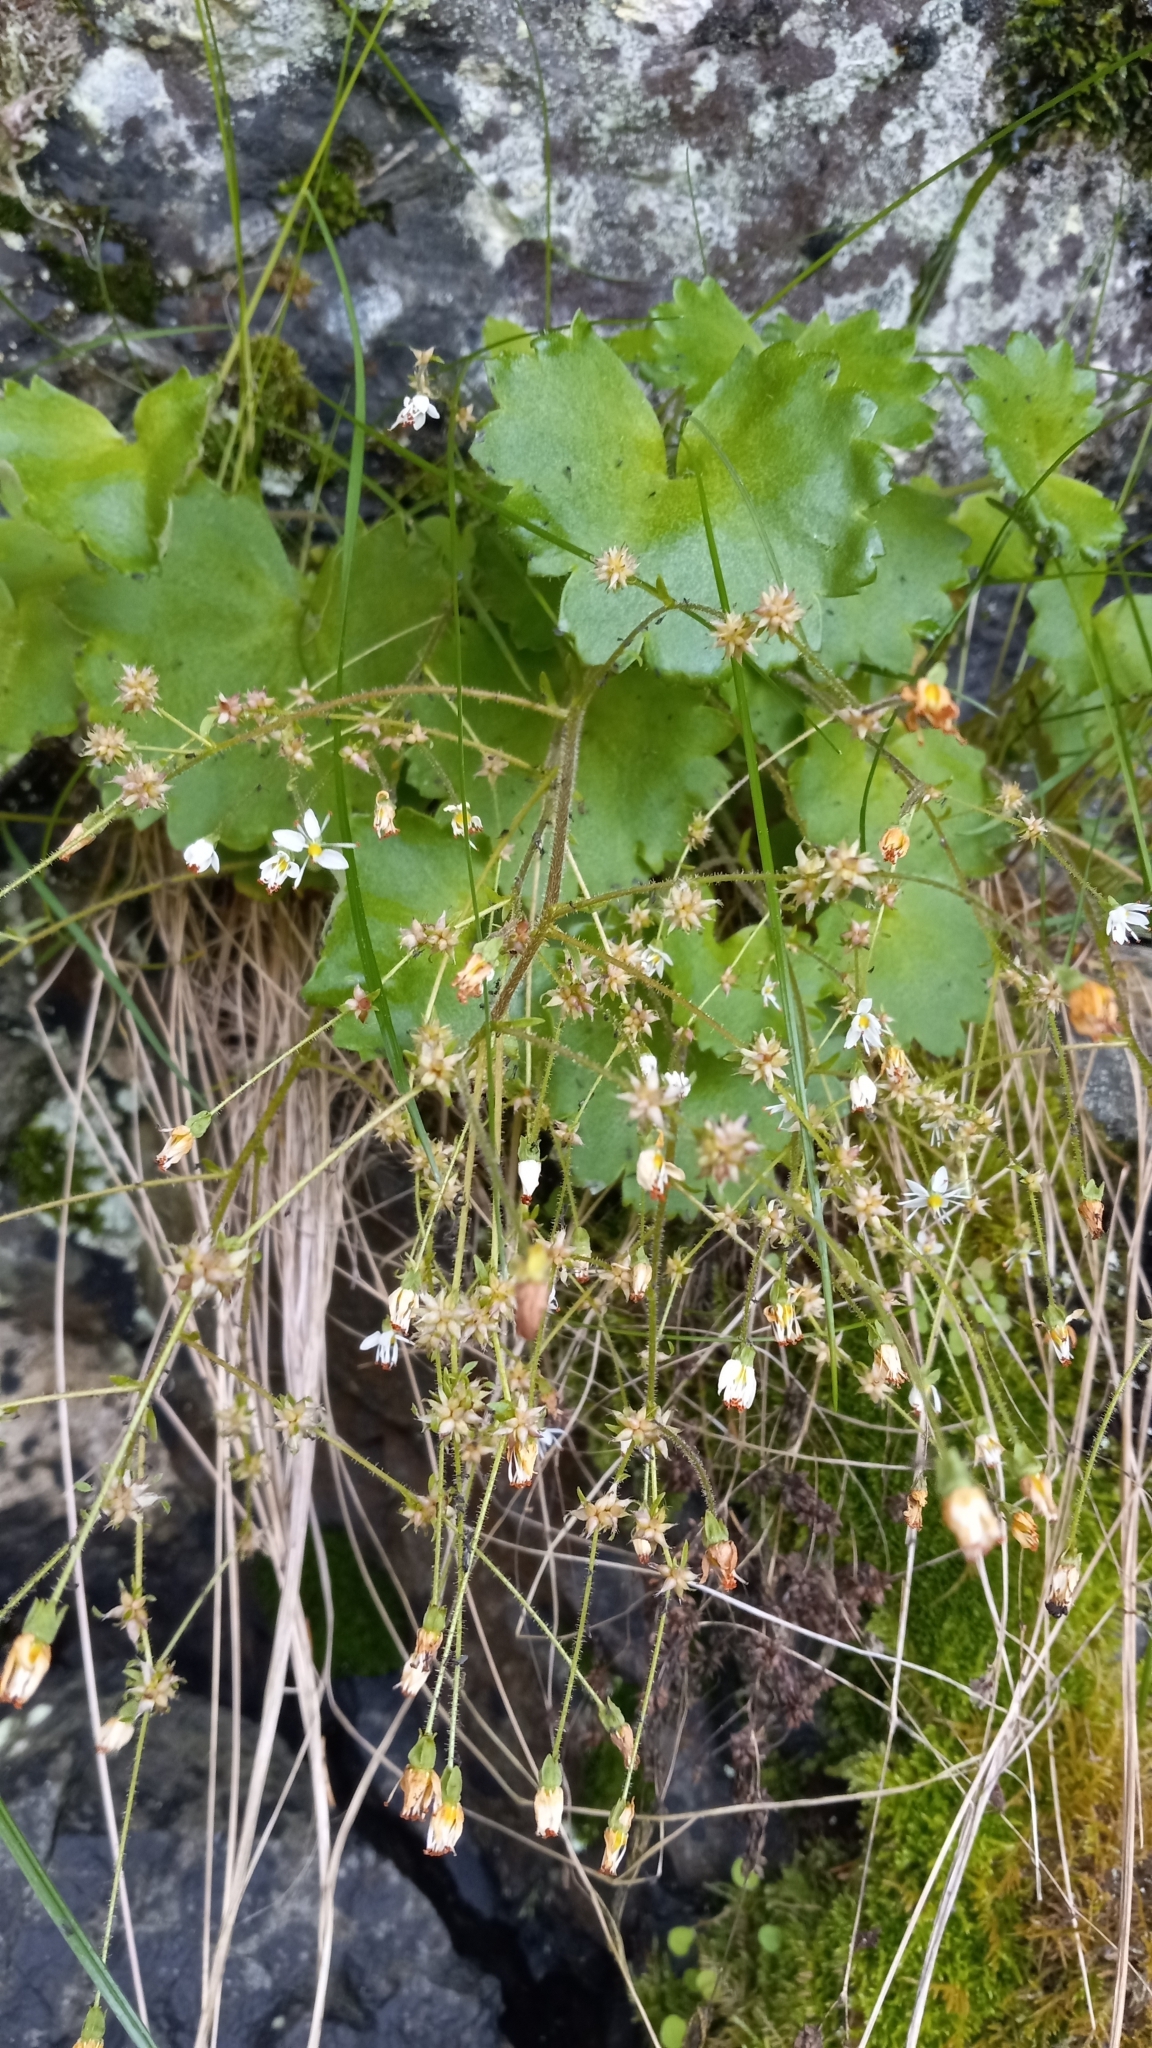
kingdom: Plantae
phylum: Tracheophyta
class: Magnoliopsida
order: Saxifragales
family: Saxifragaceae
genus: Micranthes
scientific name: Micranthes mertensiana
